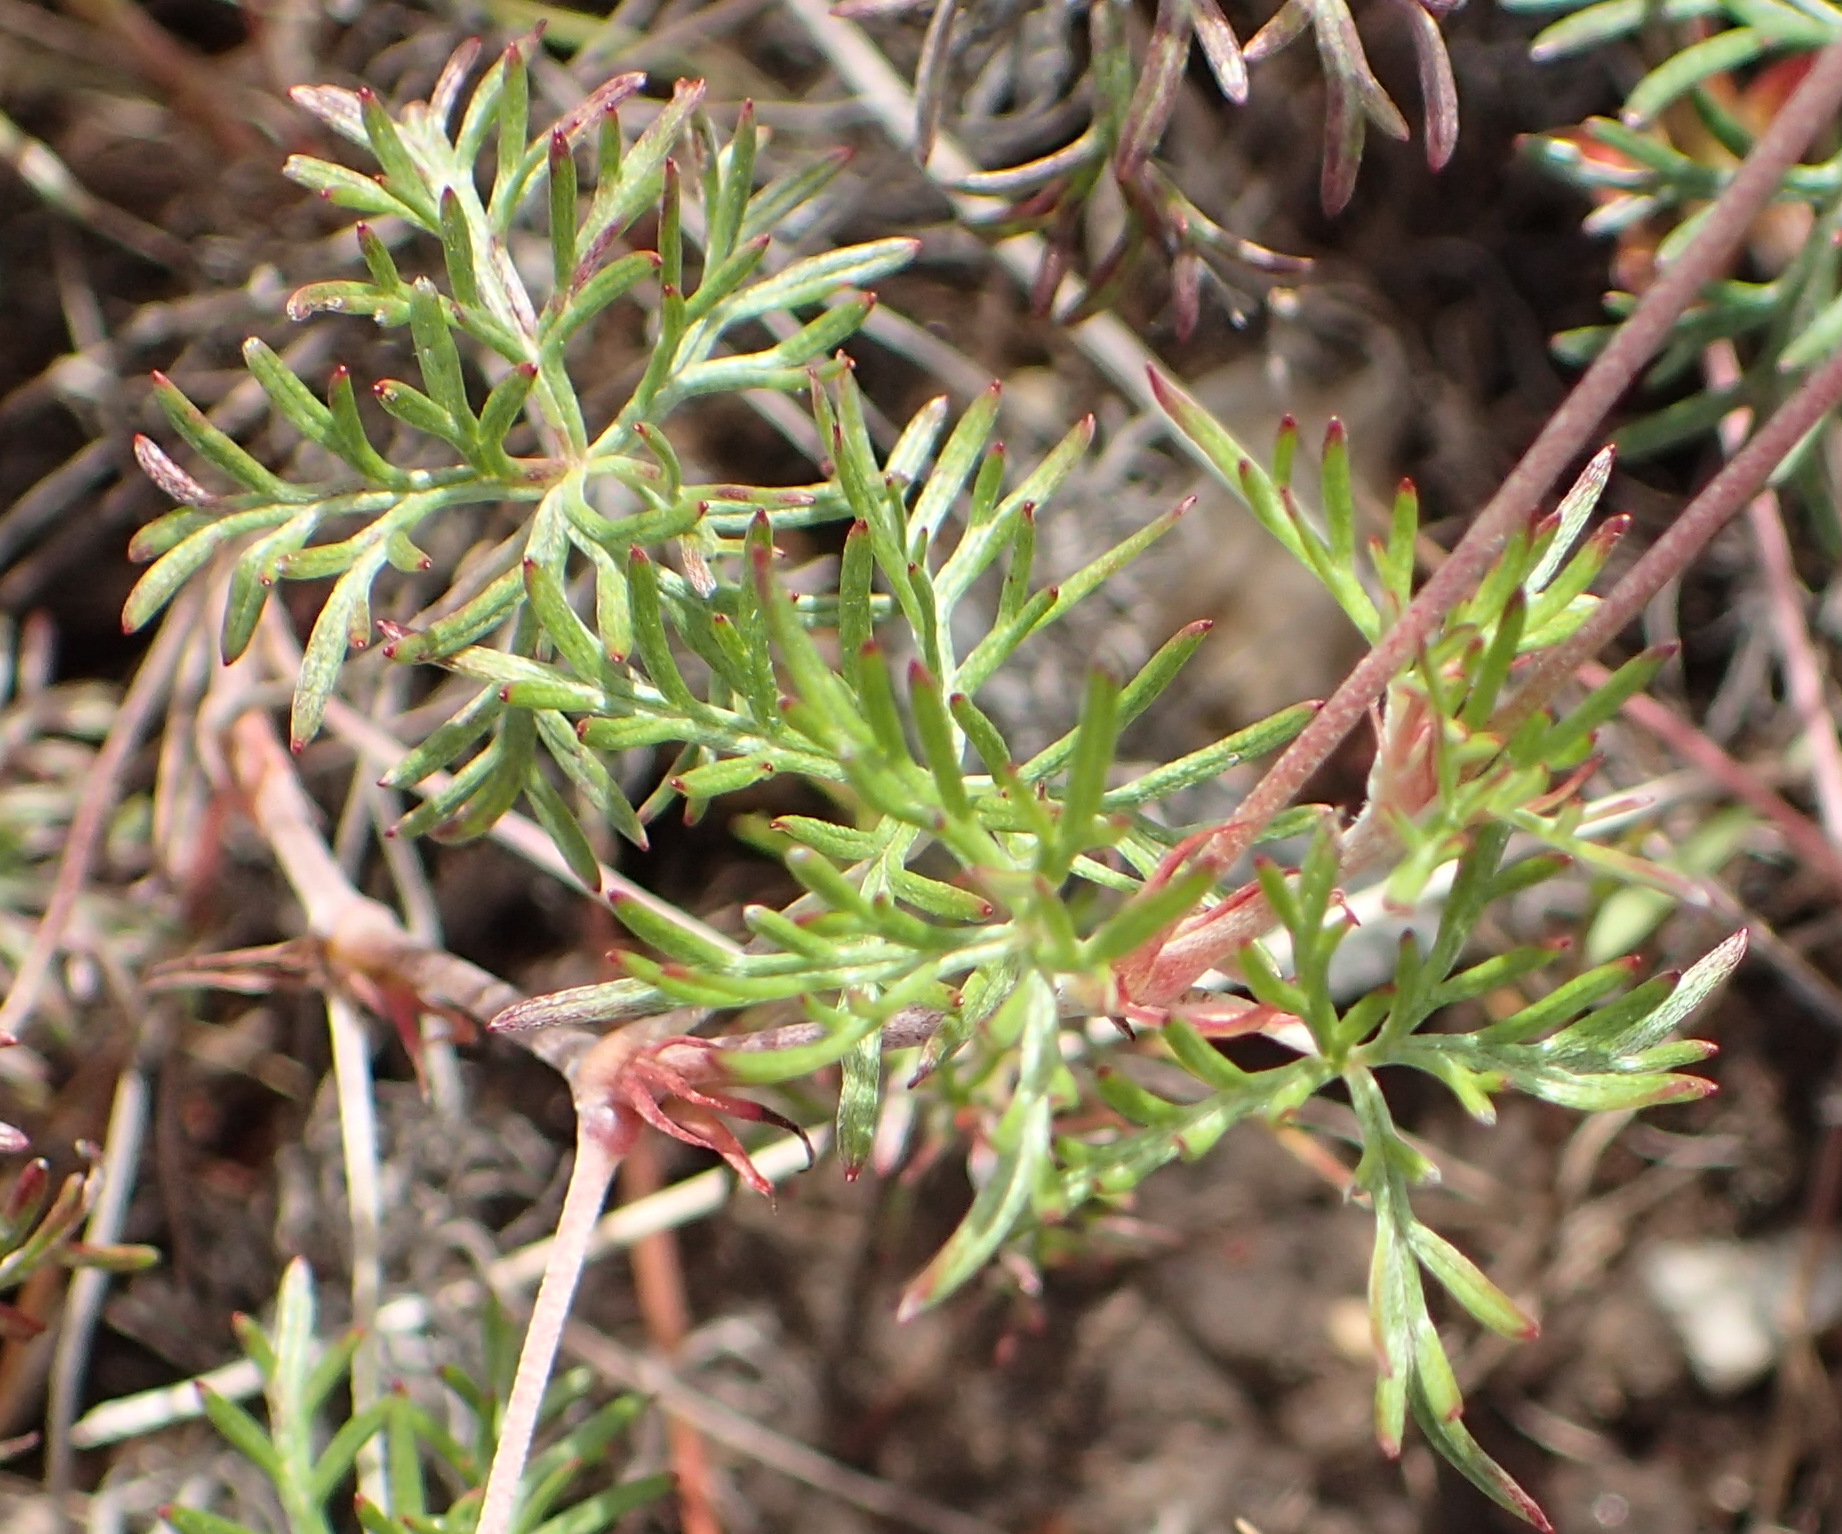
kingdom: Plantae
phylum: Tracheophyta
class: Magnoliopsida
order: Geraniales
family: Geraniaceae
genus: Geranium
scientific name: Geranium incanum
